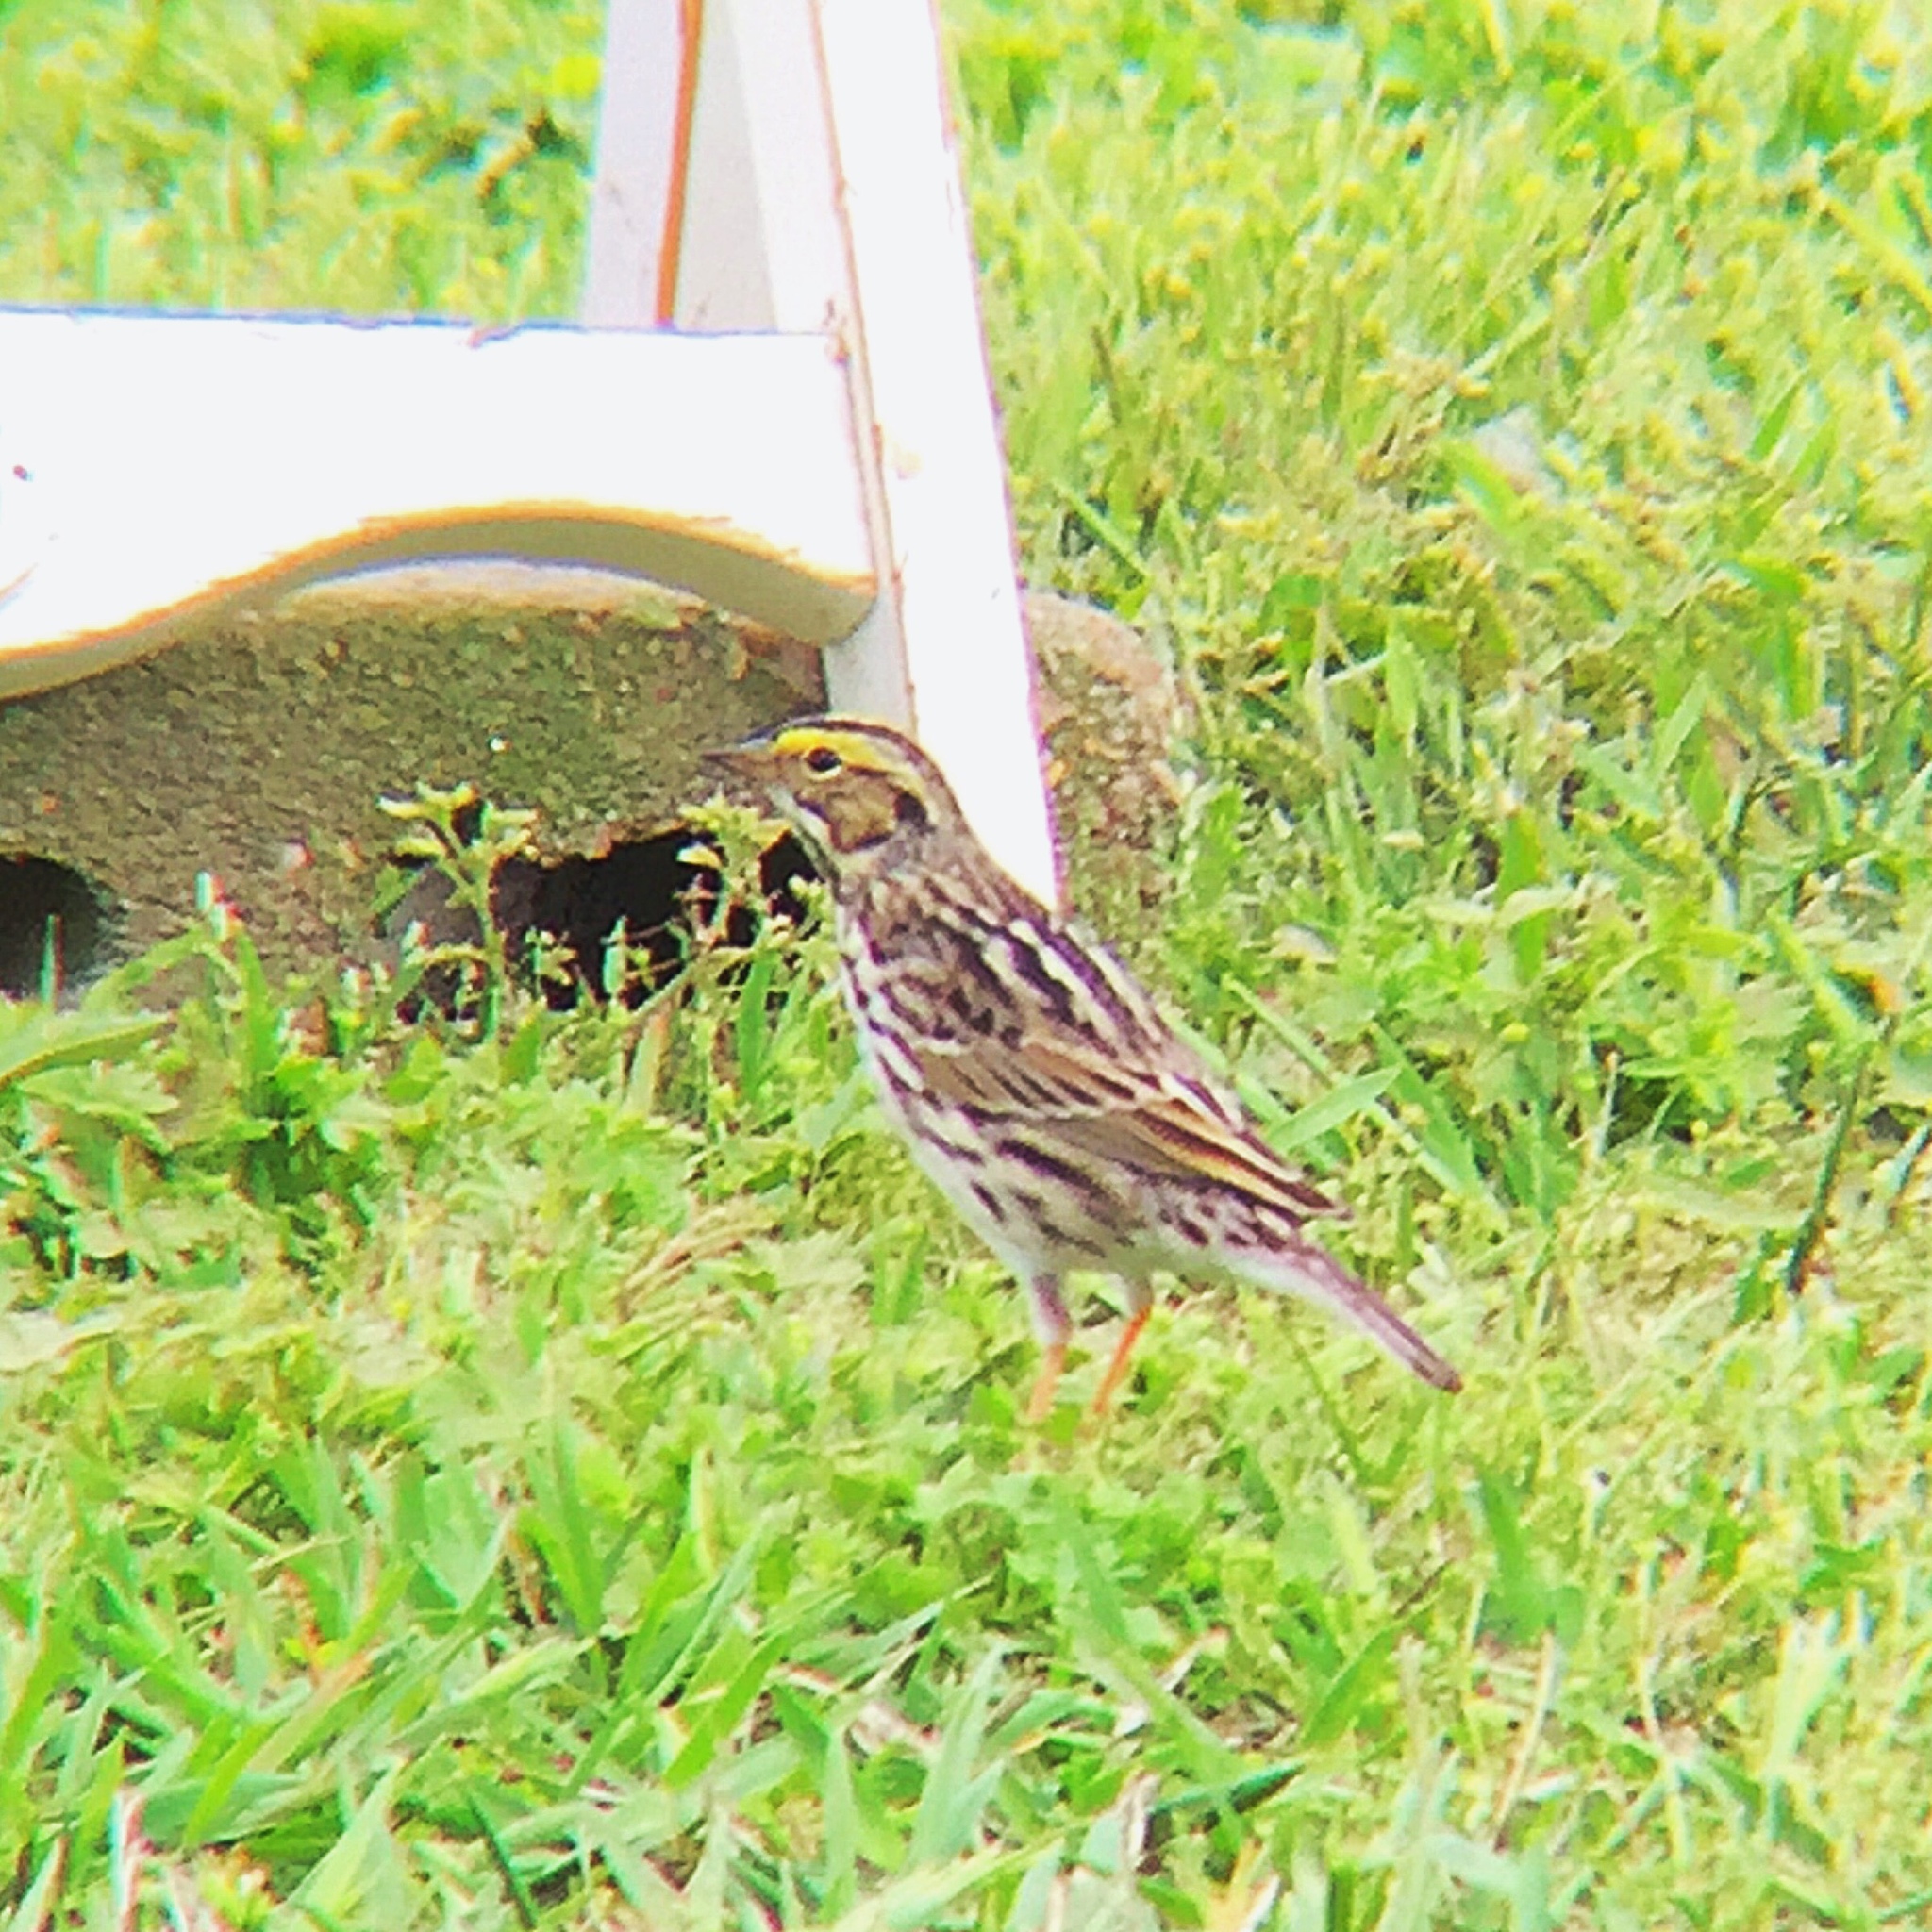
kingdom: Animalia
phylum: Chordata
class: Aves
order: Passeriformes
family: Passerellidae
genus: Passerculus
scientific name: Passerculus sandwichensis
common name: Savannah sparrow
